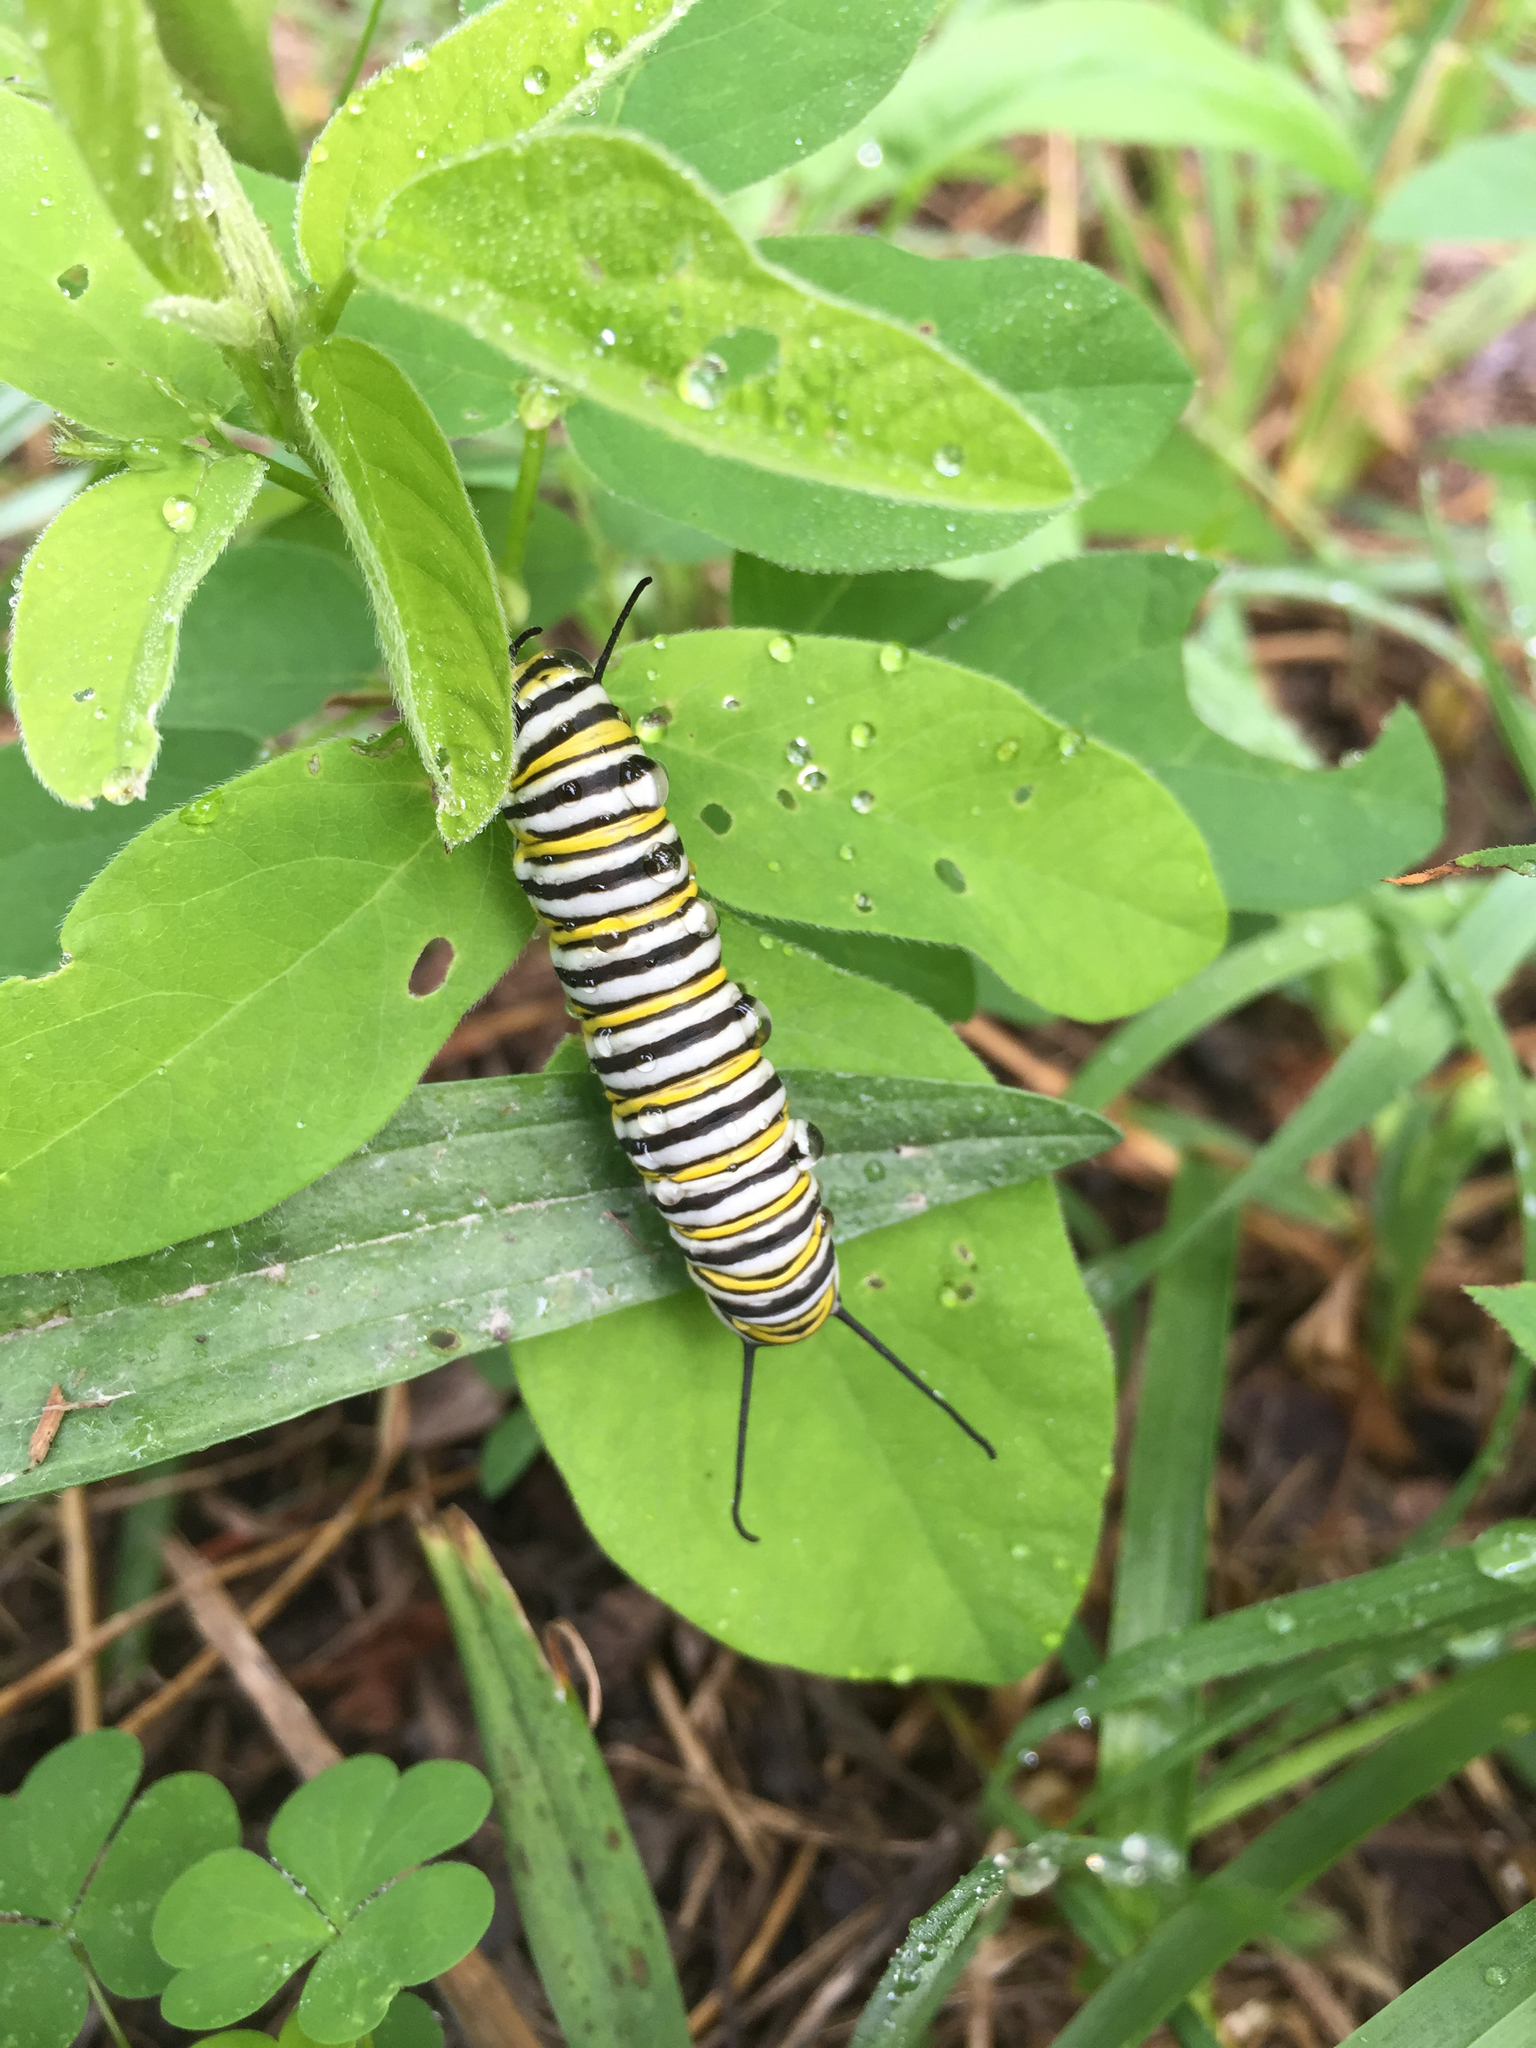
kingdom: Animalia
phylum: Arthropoda
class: Insecta
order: Lepidoptera
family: Nymphalidae
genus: Danaus
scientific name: Danaus plexippus
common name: Monarch
